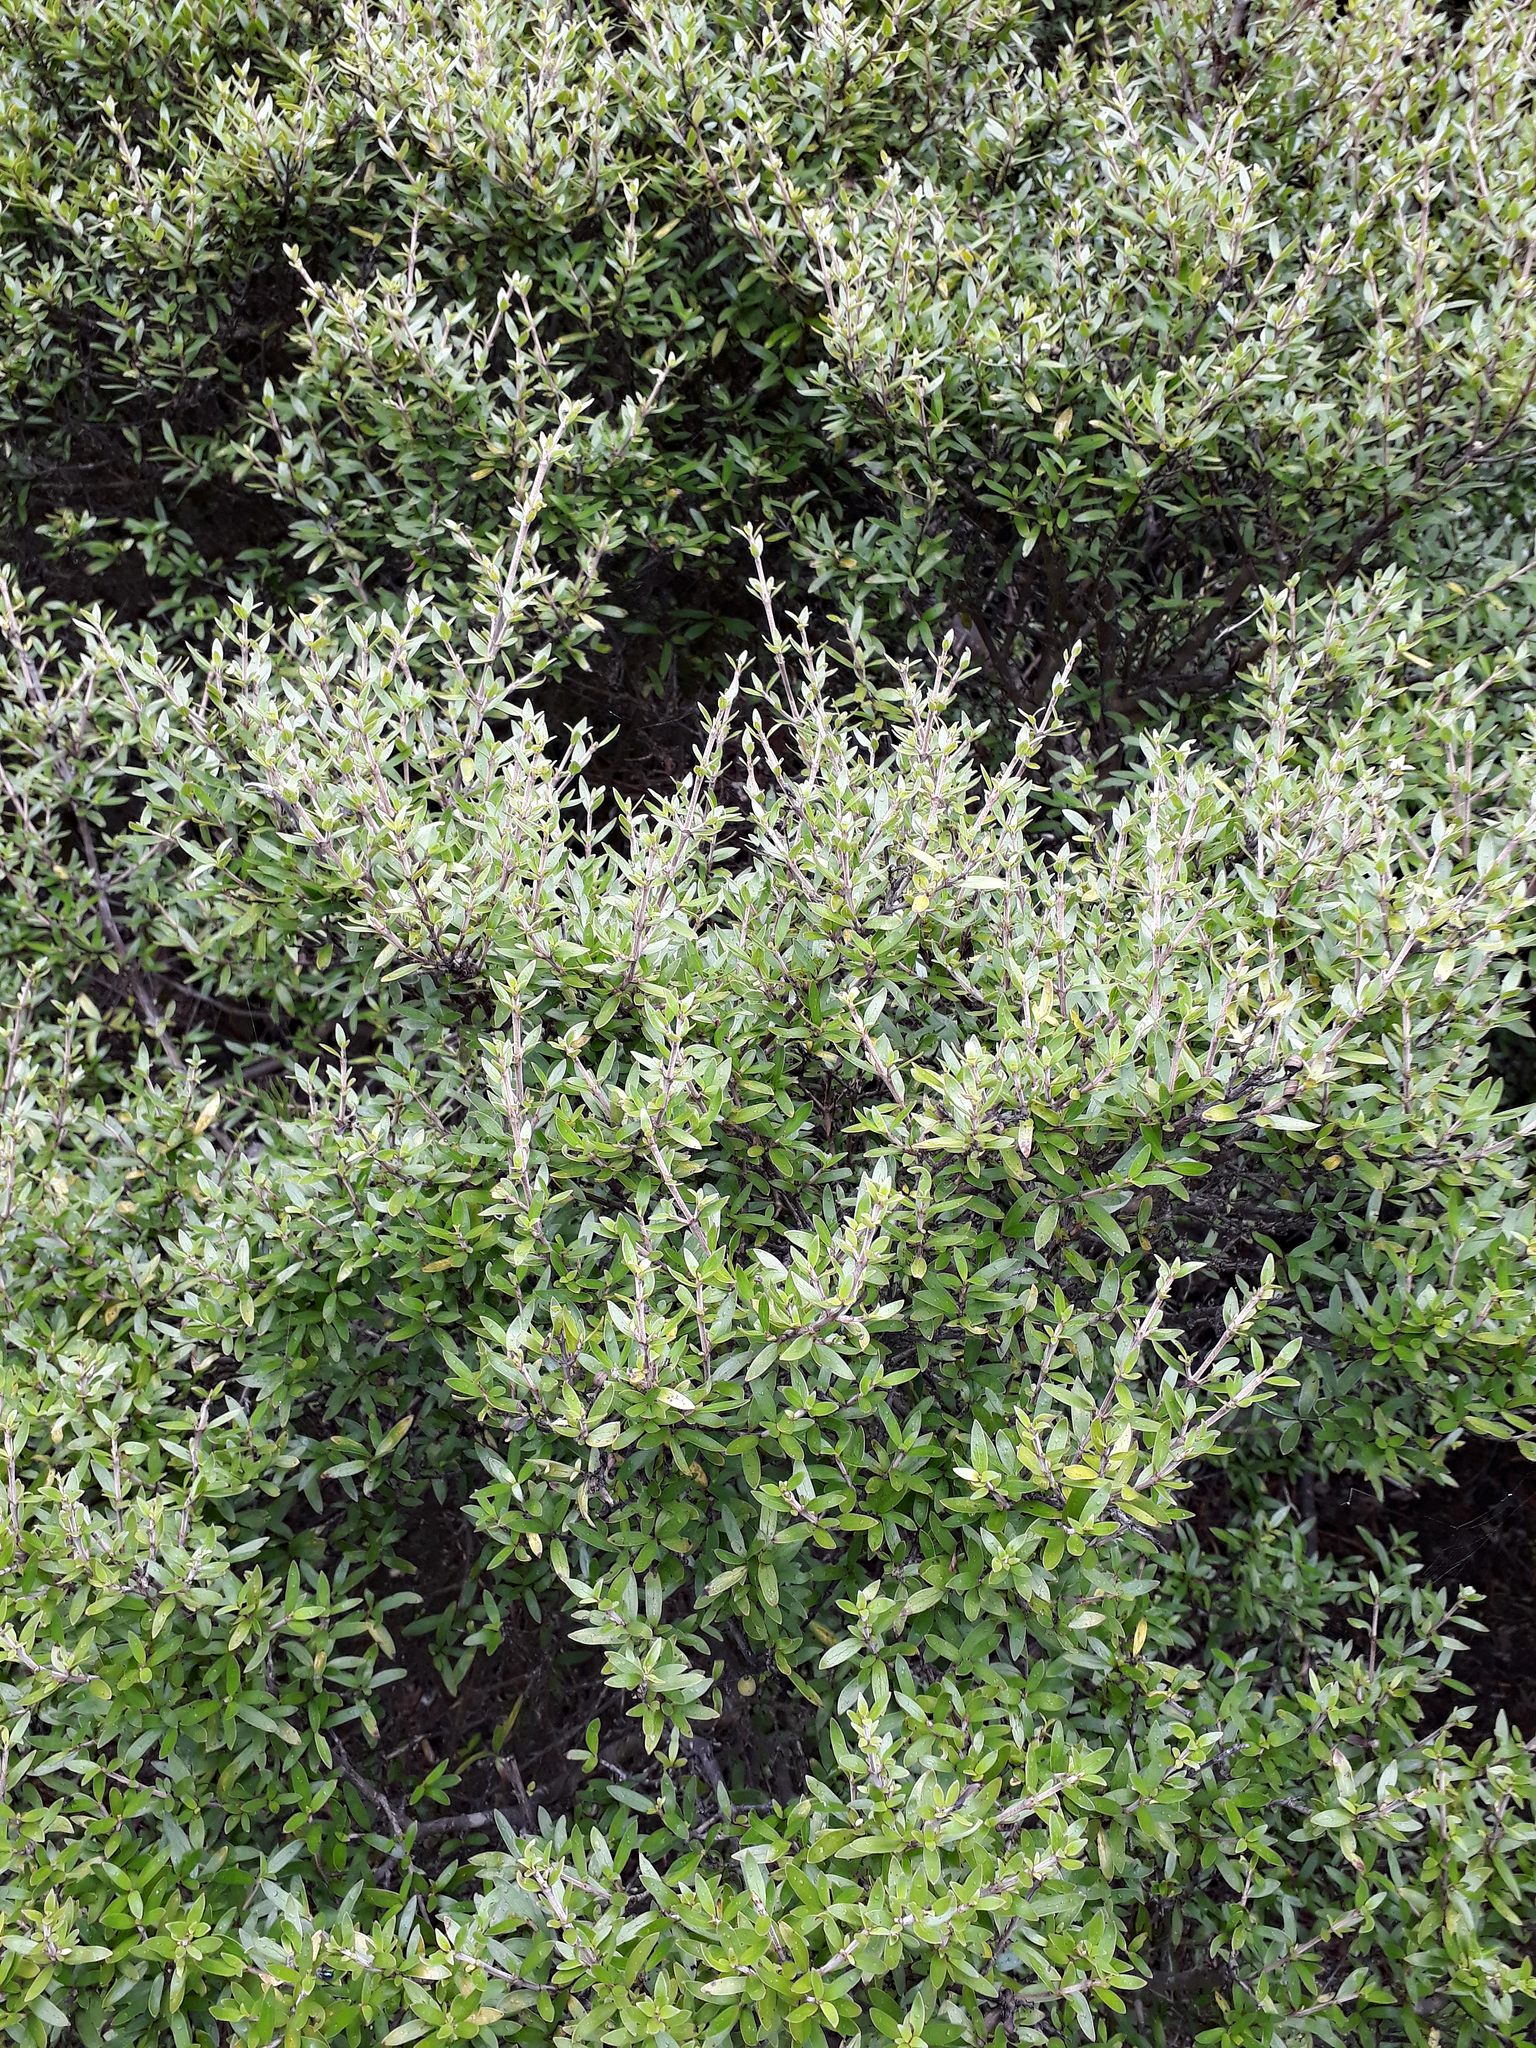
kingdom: Plantae
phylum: Tracheophyta
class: Magnoliopsida
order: Gentianales
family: Rubiaceae
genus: Coprosma
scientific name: Coprosma propinqua
